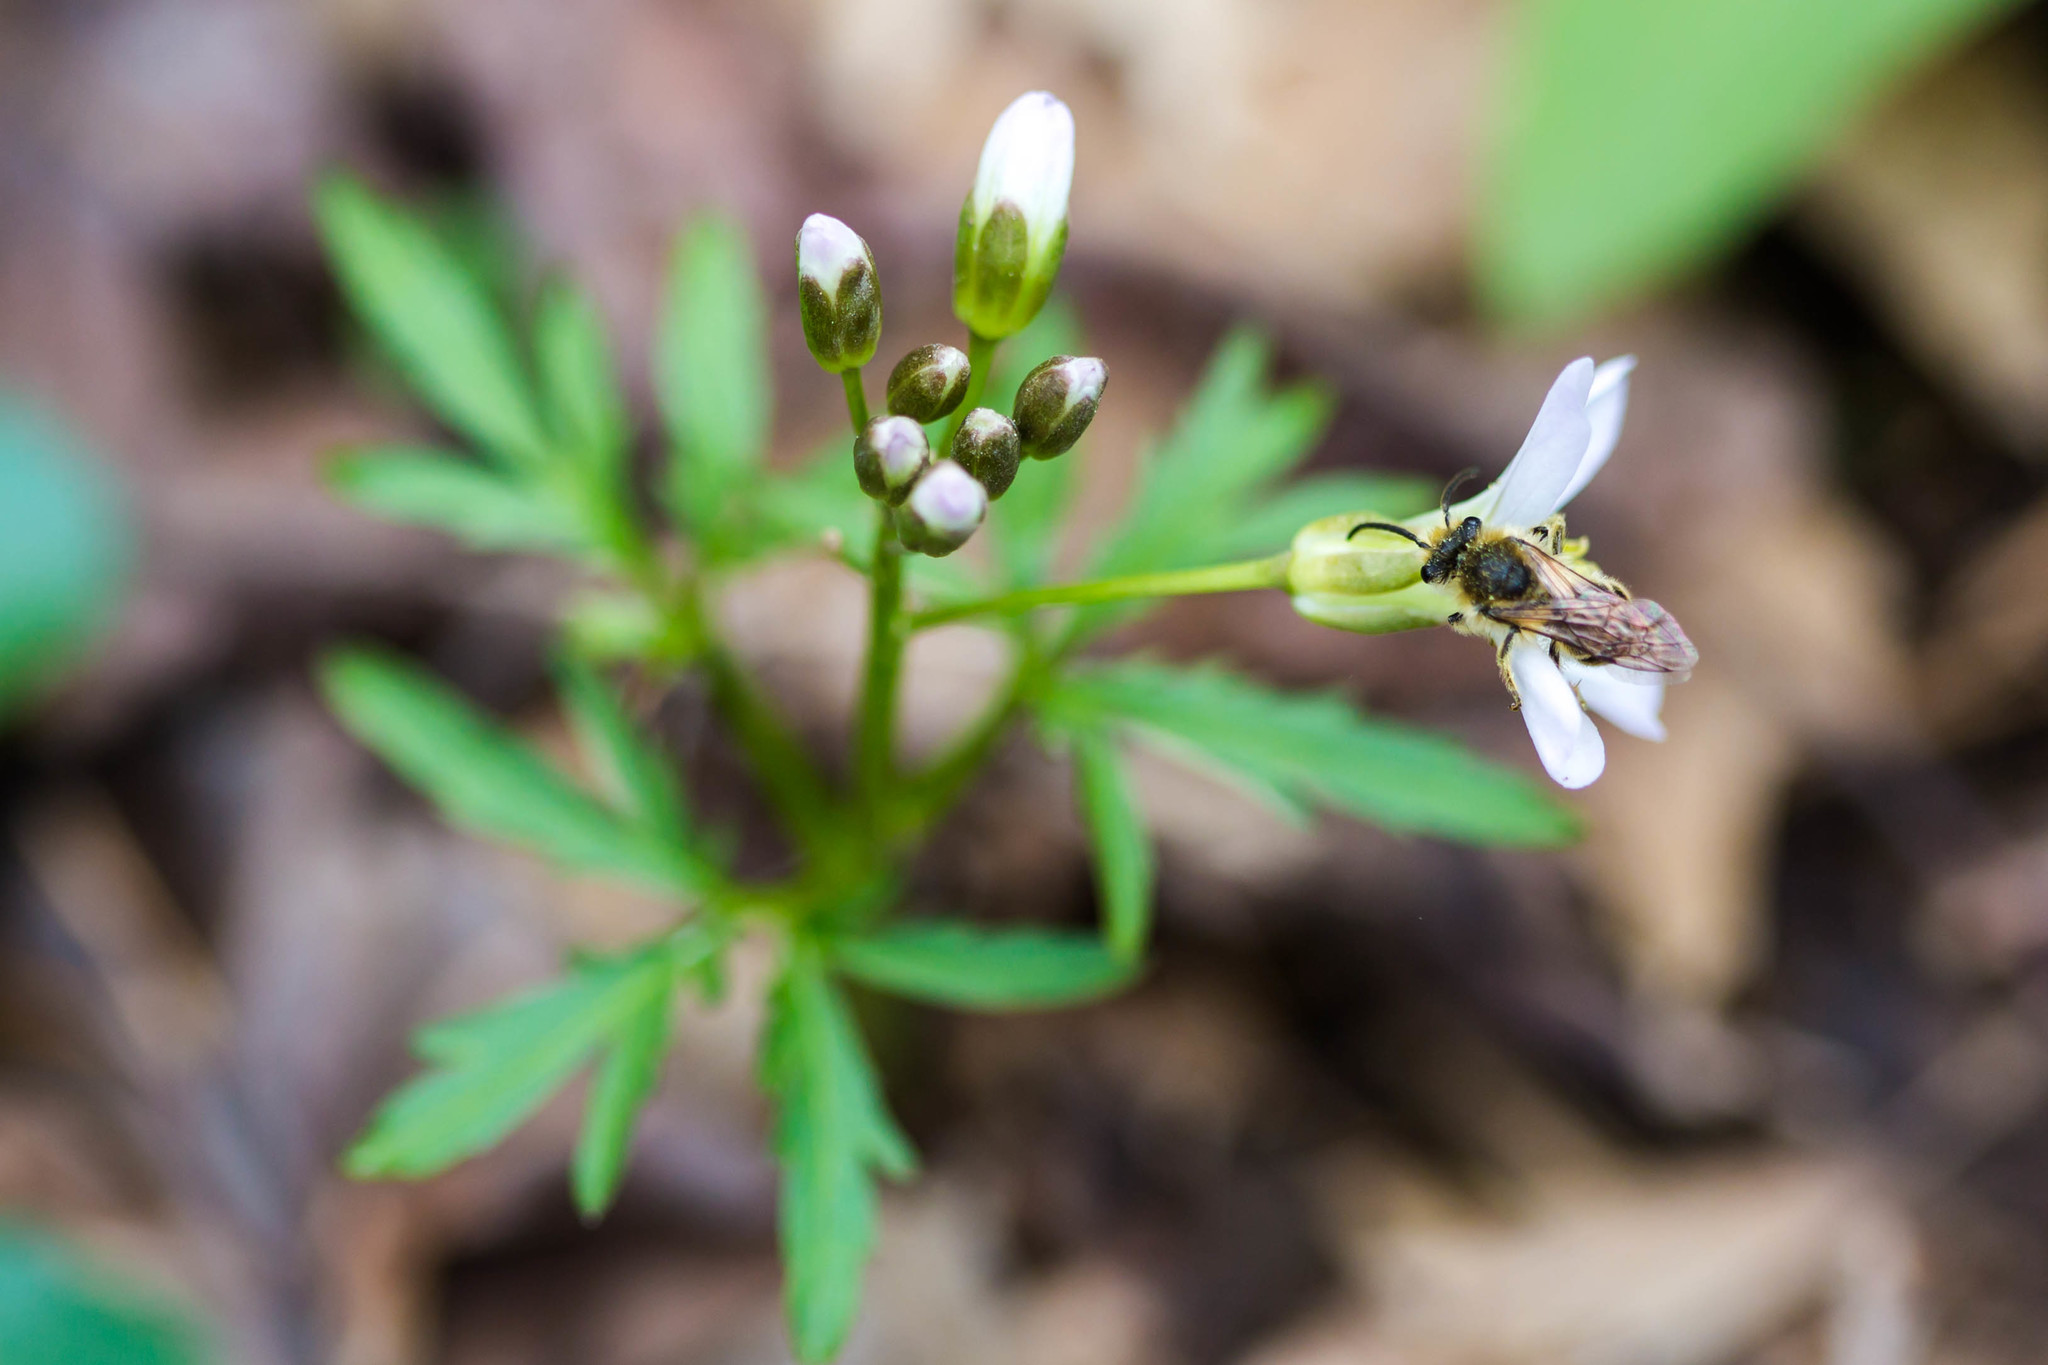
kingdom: Animalia
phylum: Arthropoda
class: Insecta
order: Hymenoptera
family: Colletidae
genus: Colletes
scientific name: Colletes inaequalis
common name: Unequal cellophane bee
